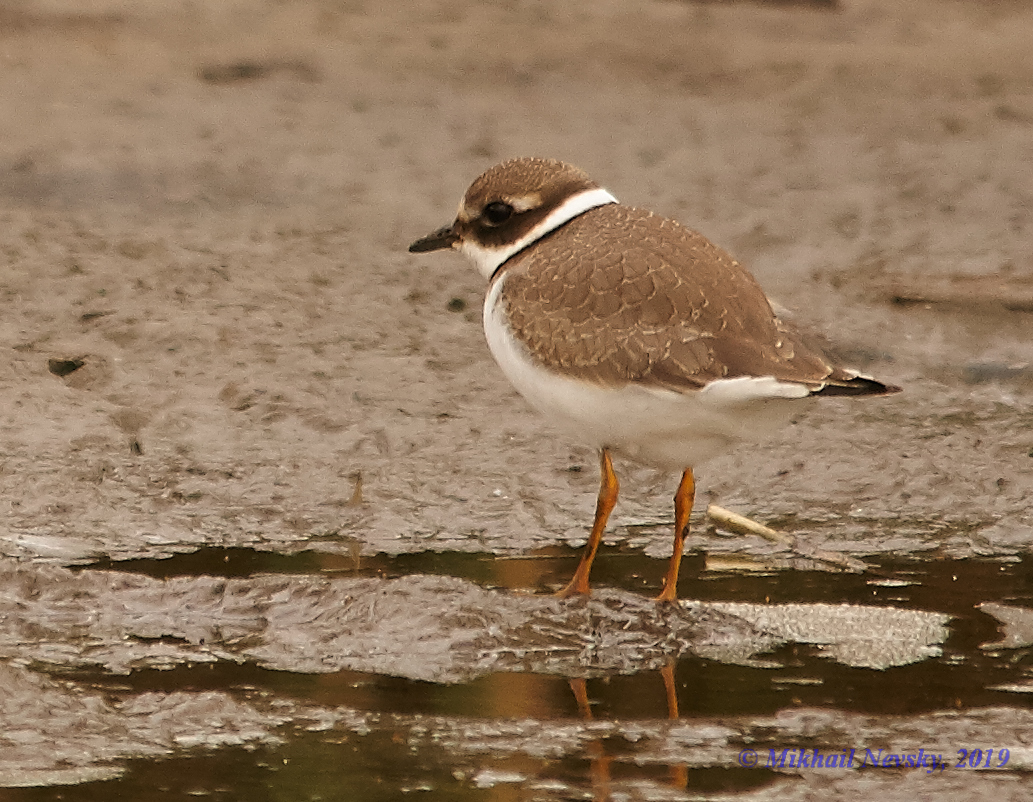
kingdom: Animalia
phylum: Chordata
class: Aves
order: Charadriiformes
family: Charadriidae
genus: Charadrius
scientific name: Charadrius hiaticula
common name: Common ringed plover
